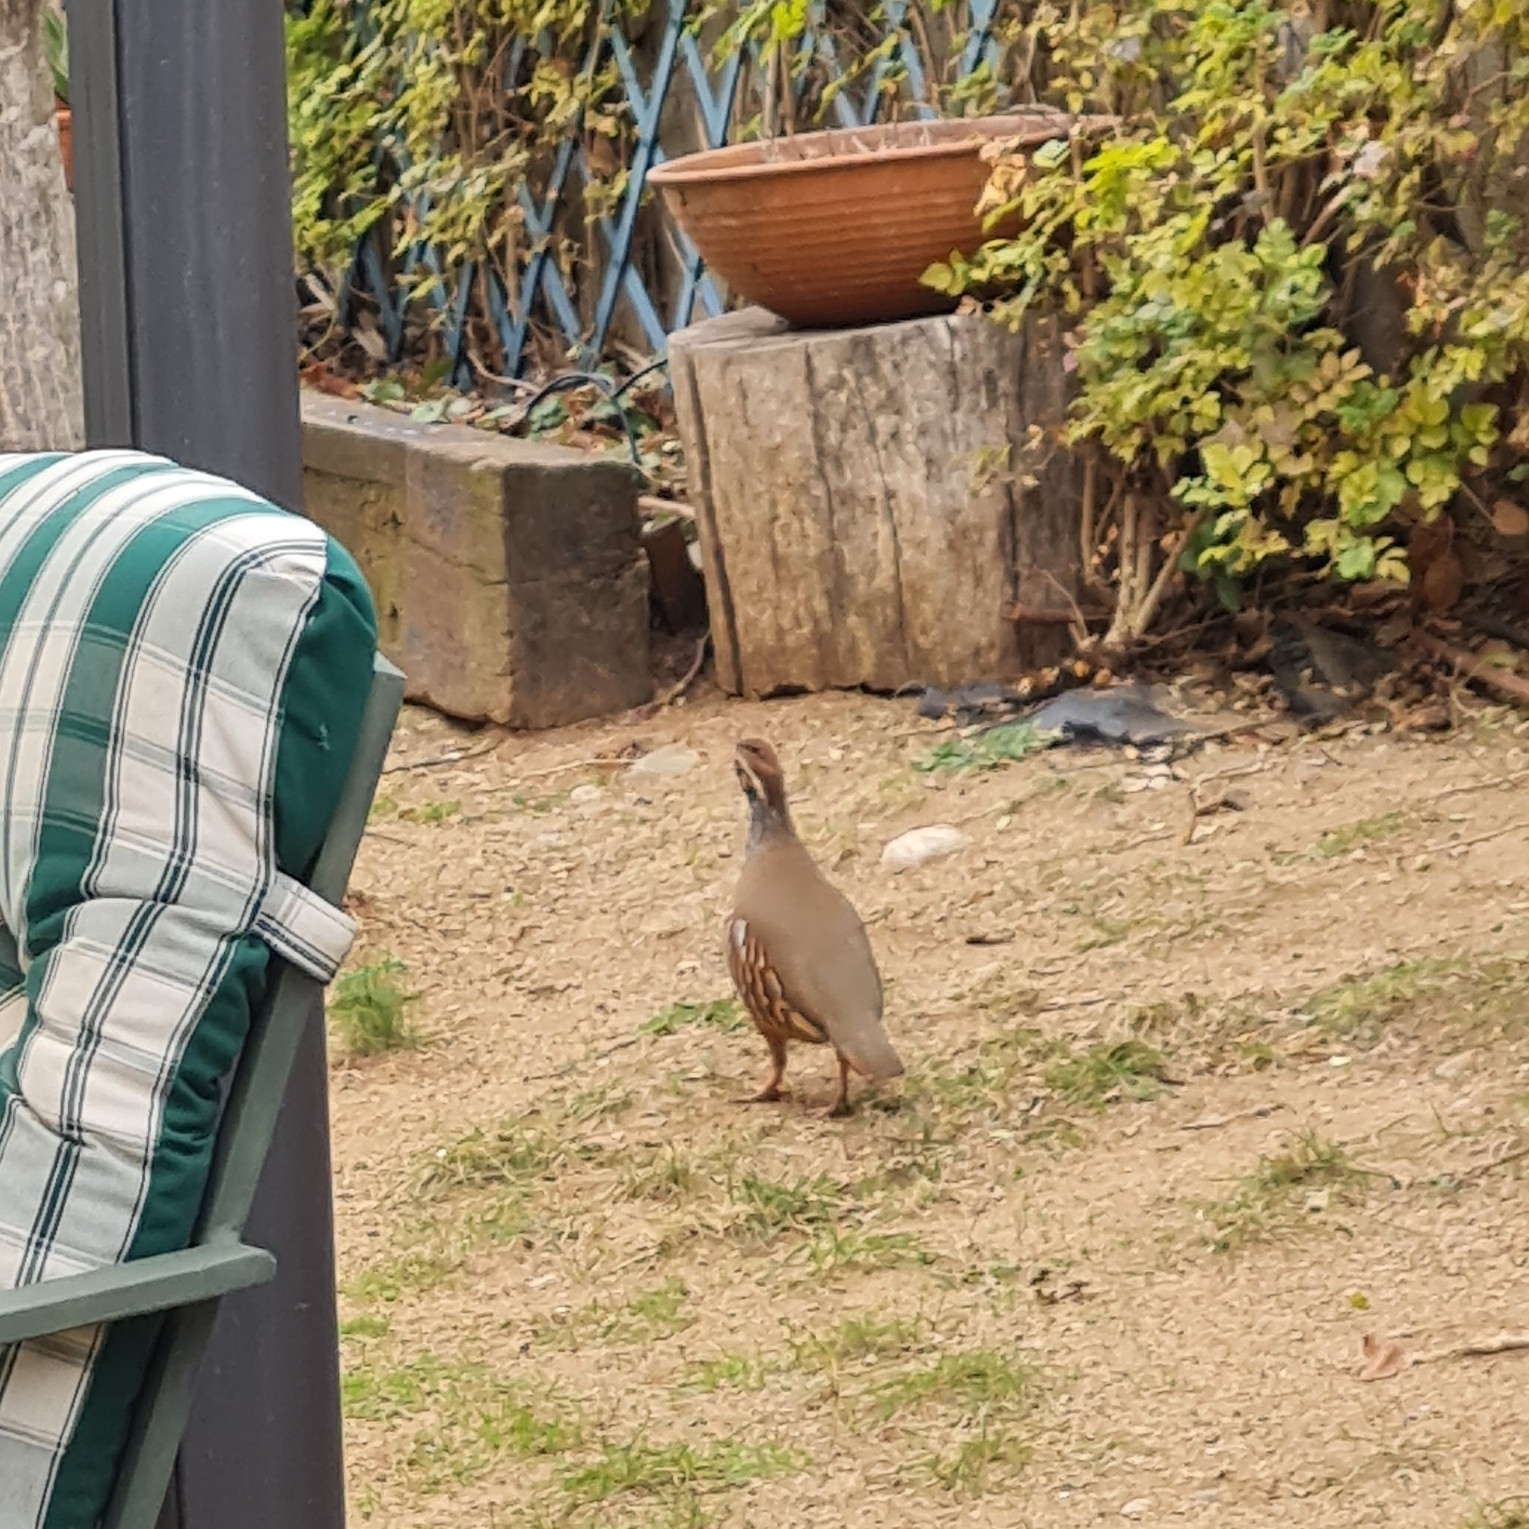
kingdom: Animalia
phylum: Chordata
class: Aves
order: Galliformes
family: Phasianidae
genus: Alectoris
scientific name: Alectoris rufa
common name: Red-legged partridge
